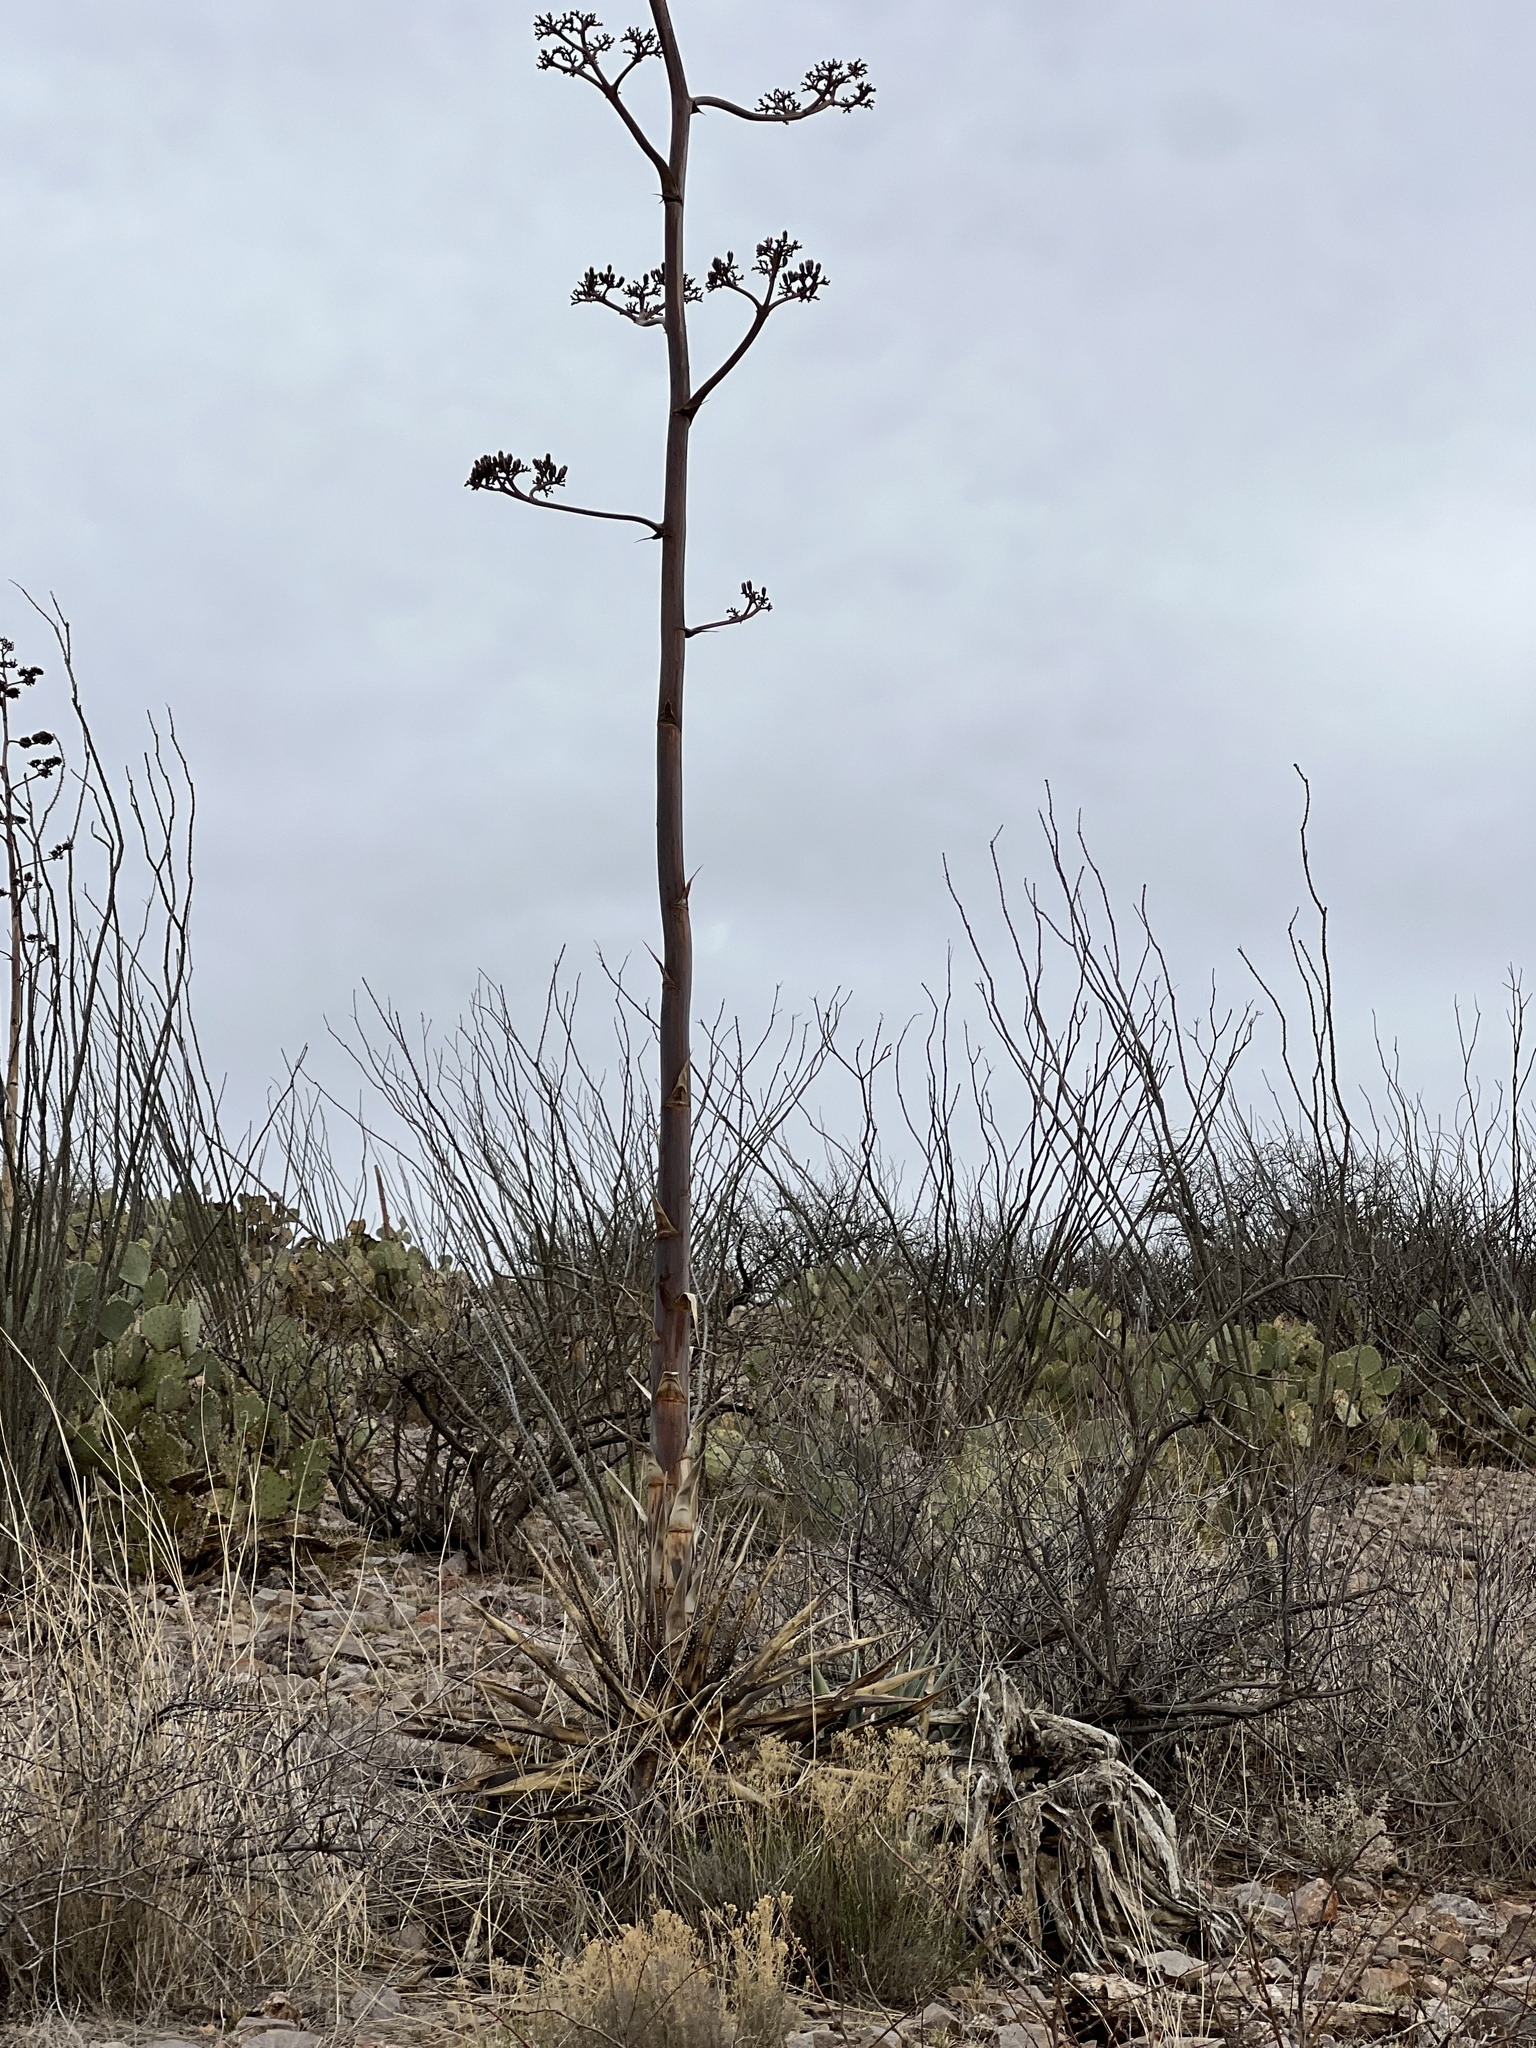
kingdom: Plantae
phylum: Tracheophyta
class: Liliopsida
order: Asparagales
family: Asparagaceae
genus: Agave
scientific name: Agave palmeri
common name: Palmer agave
